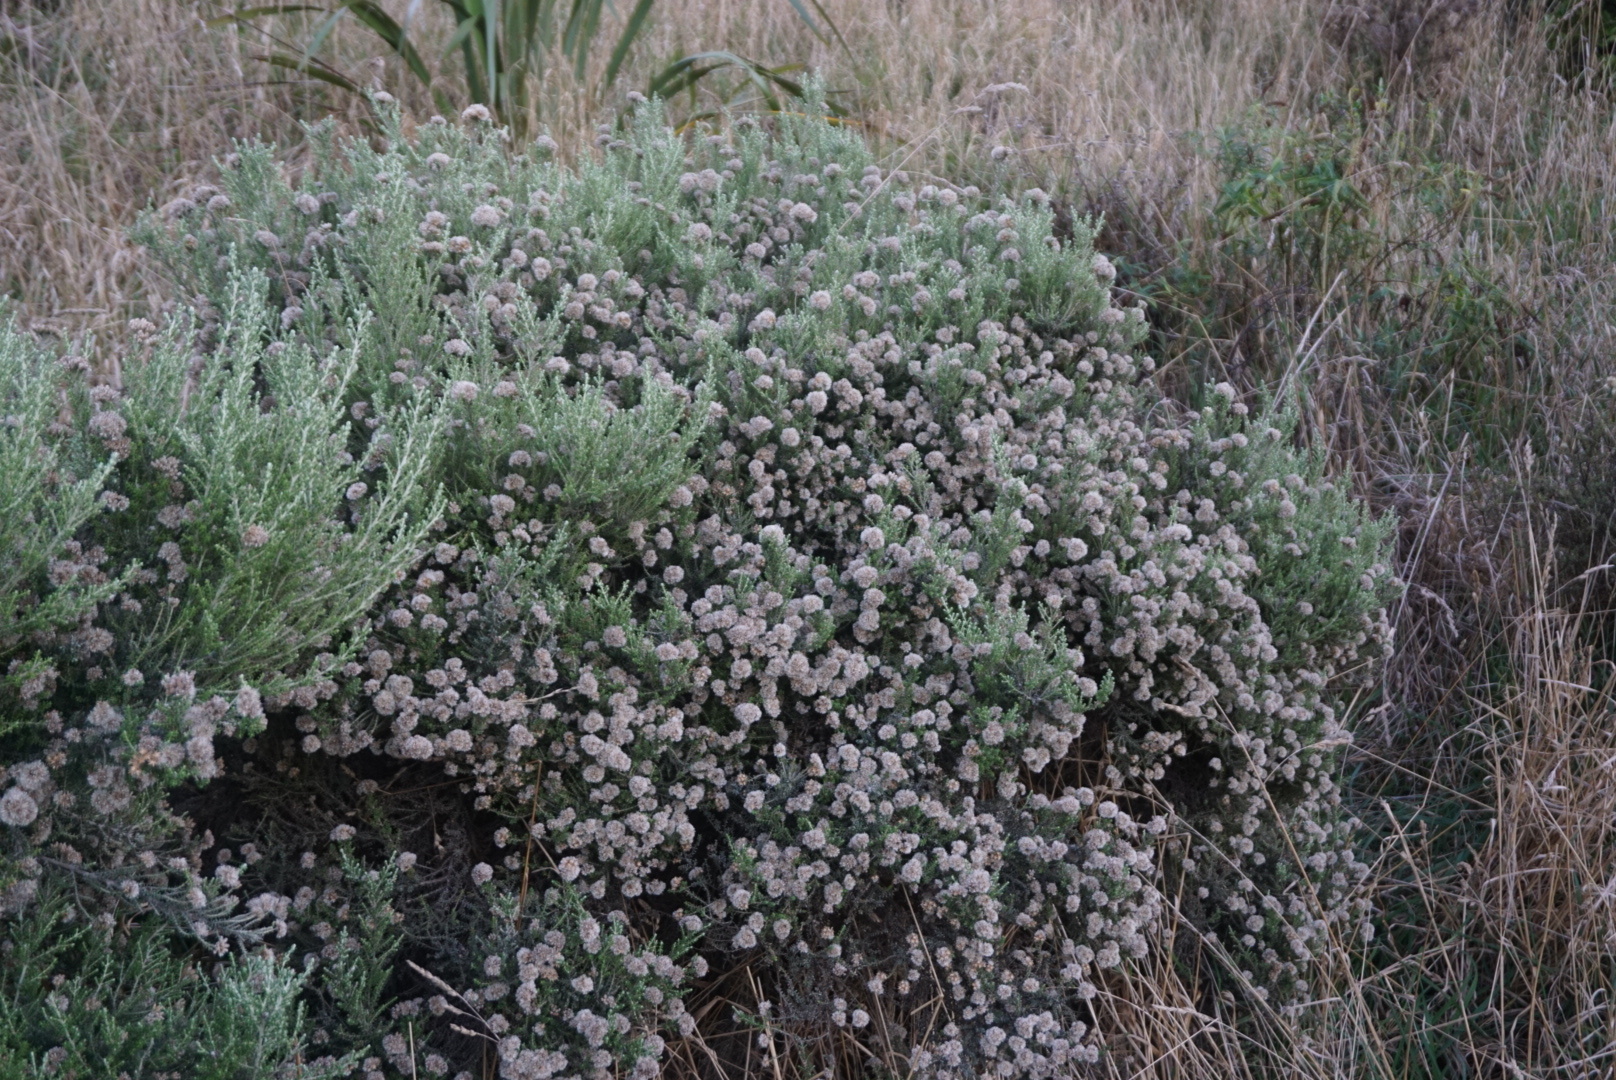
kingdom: Plantae
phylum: Tracheophyta
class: Magnoliopsida
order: Asterales
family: Asteraceae
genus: Ozothamnus
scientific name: Ozothamnus leptophyllus
